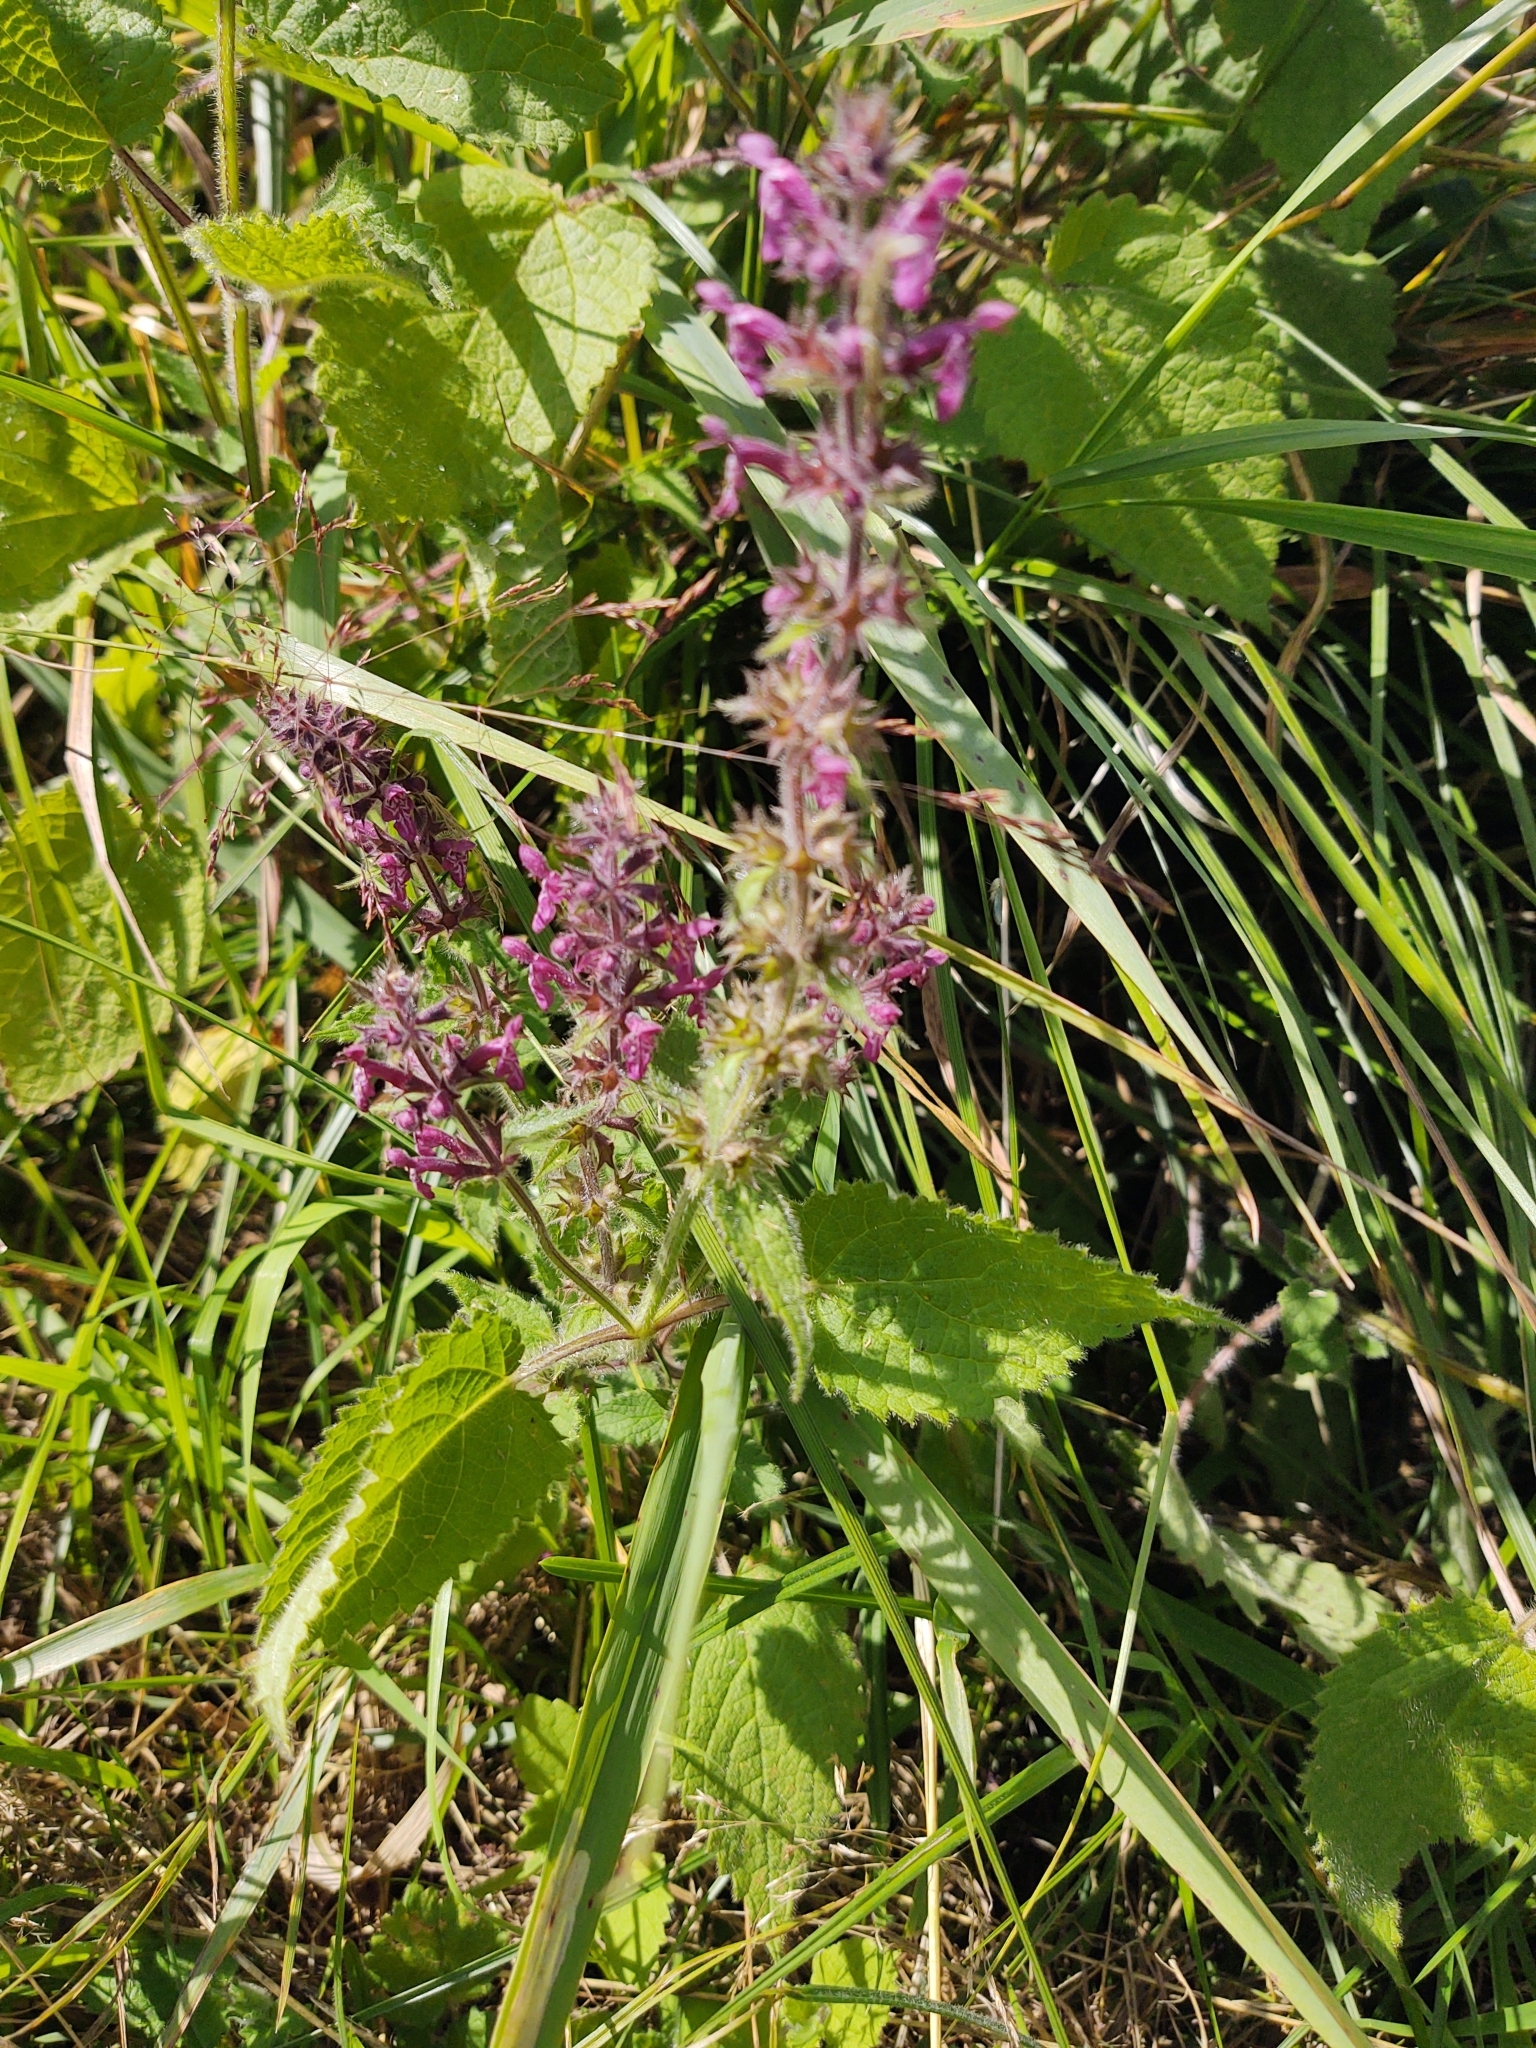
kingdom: Plantae
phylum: Tracheophyta
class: Magnoliopsida
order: Lamiales
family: Lamiaceae
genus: Stachys
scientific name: Stachys sylvatica
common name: Hedge woundwort
